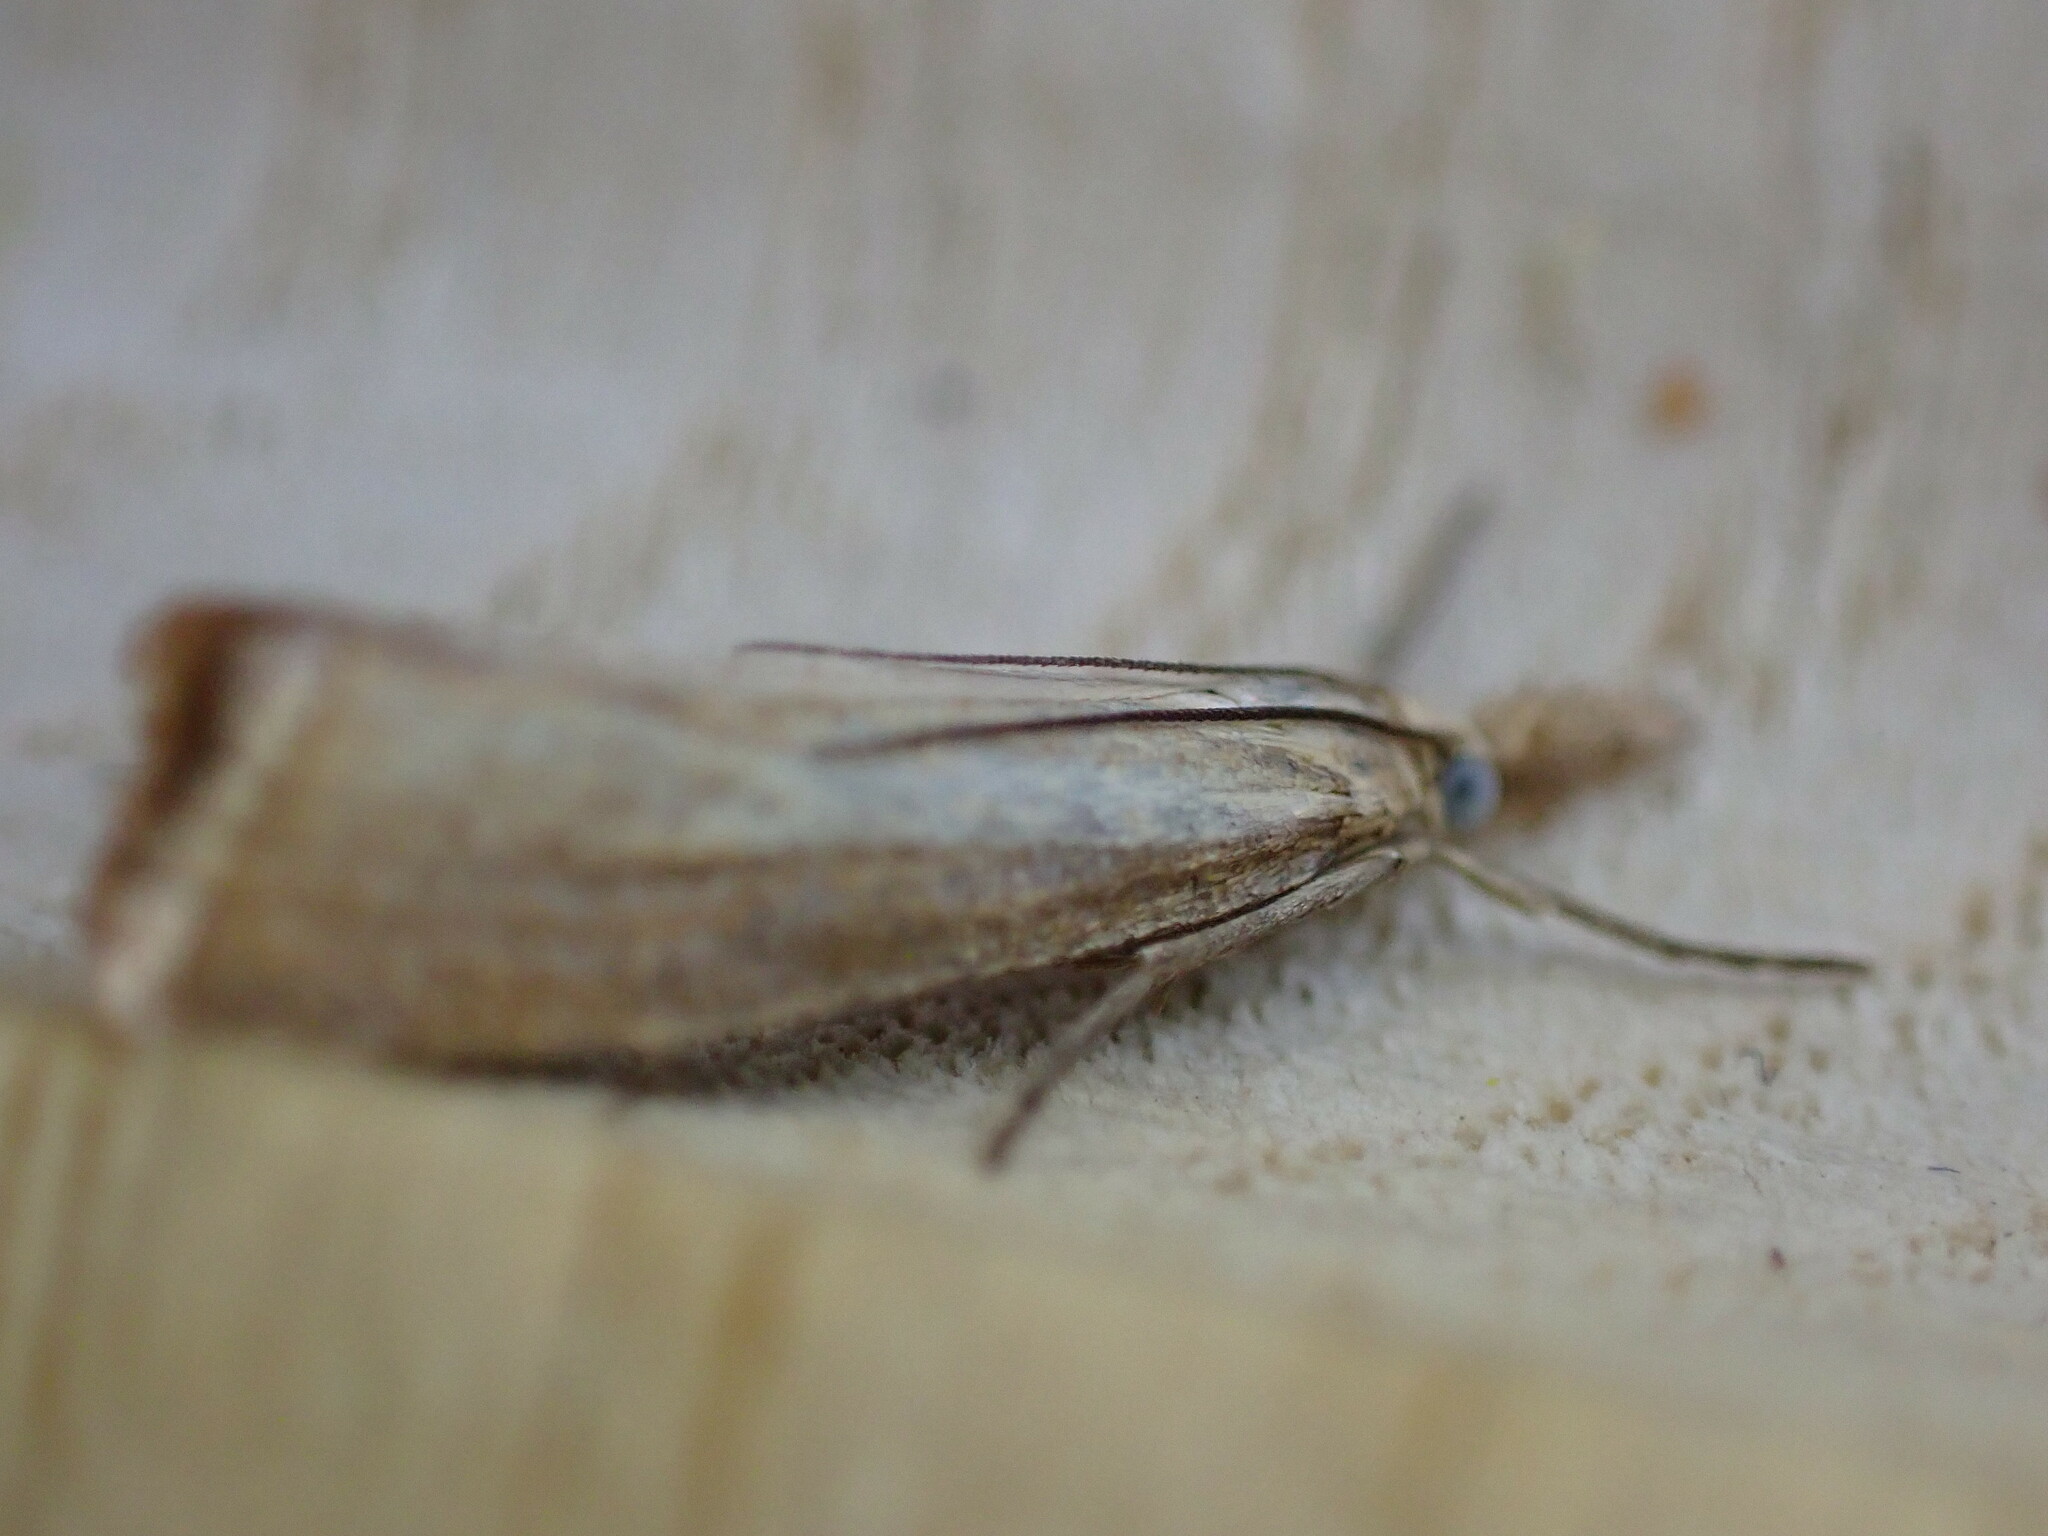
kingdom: Animalia
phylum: Arthropoda
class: Insecta
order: Lepidoptera
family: Crambidae
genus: Agriphila
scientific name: Agriphila straminella
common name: Straw grass-veneer
